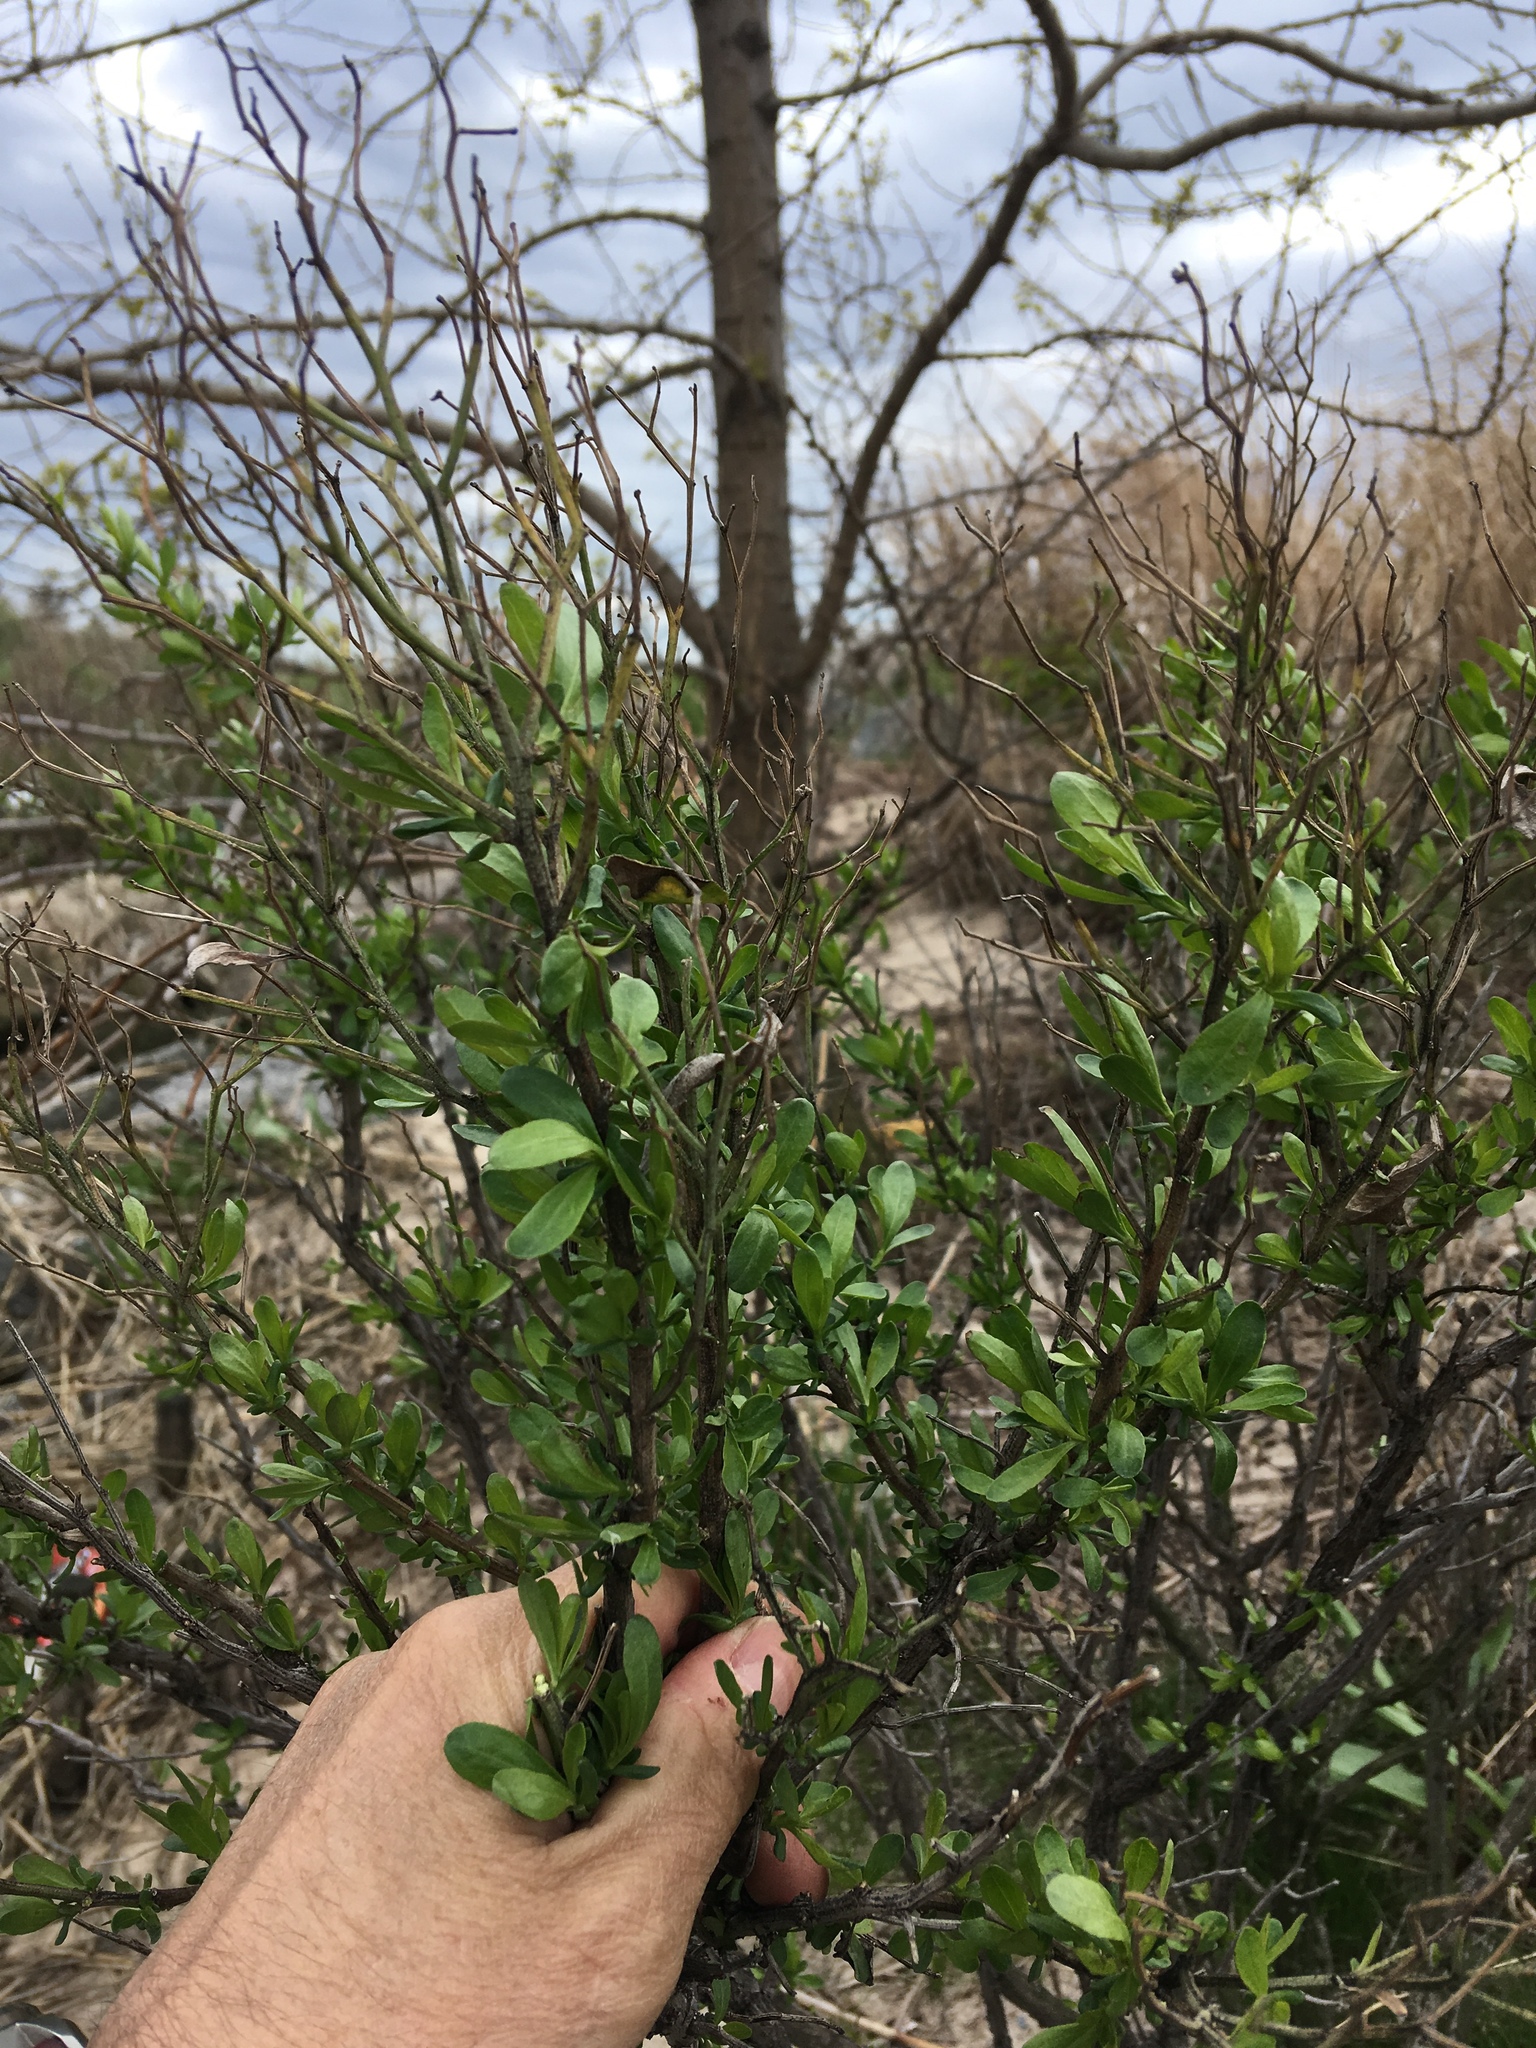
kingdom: Plantae
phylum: Tracheophyta
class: Magnoliopsida
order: Asterales
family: Asteraceae
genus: Baccharis
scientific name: Baccharis halimifolia
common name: Eastern baccharis
